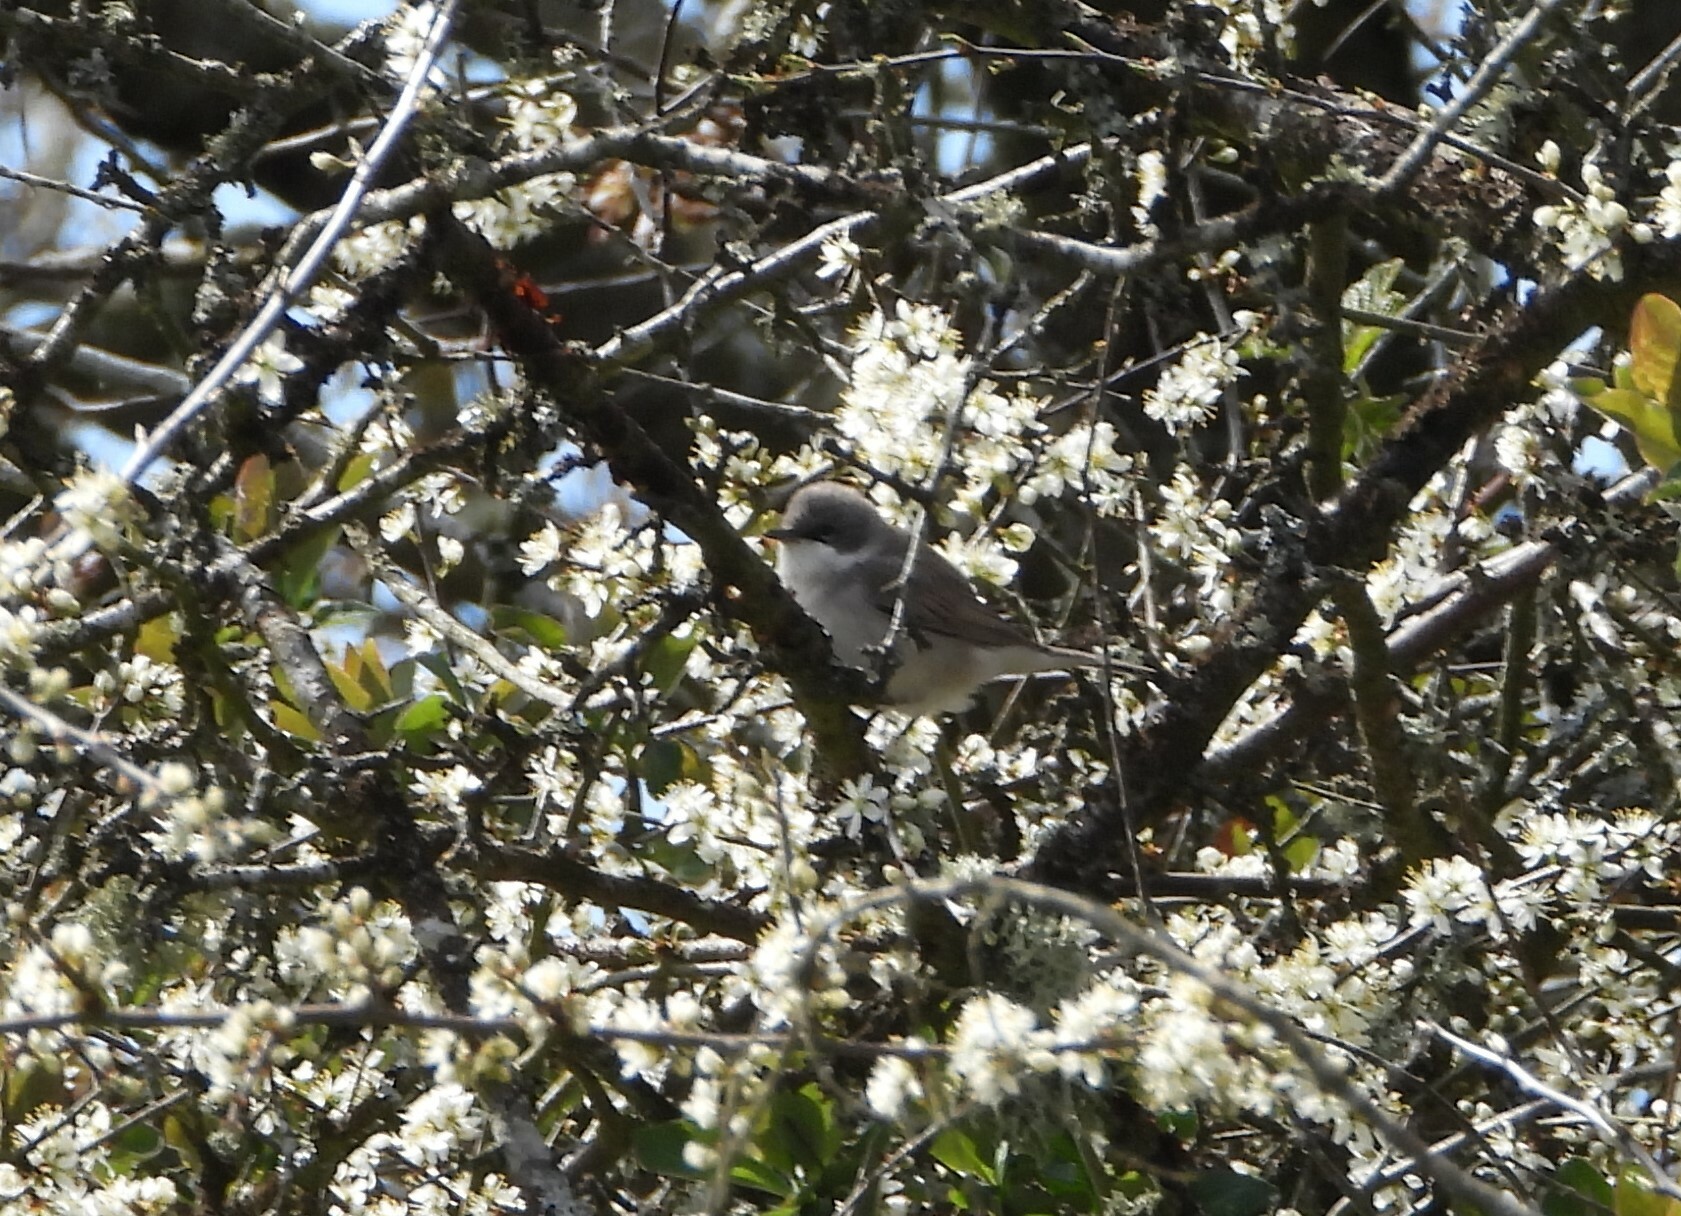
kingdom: Animalia
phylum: Chordata
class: Aves
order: Passeriformes
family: Sylviidae
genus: Sylvia
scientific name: Sylvia curruca
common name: Lesser whitethroat
